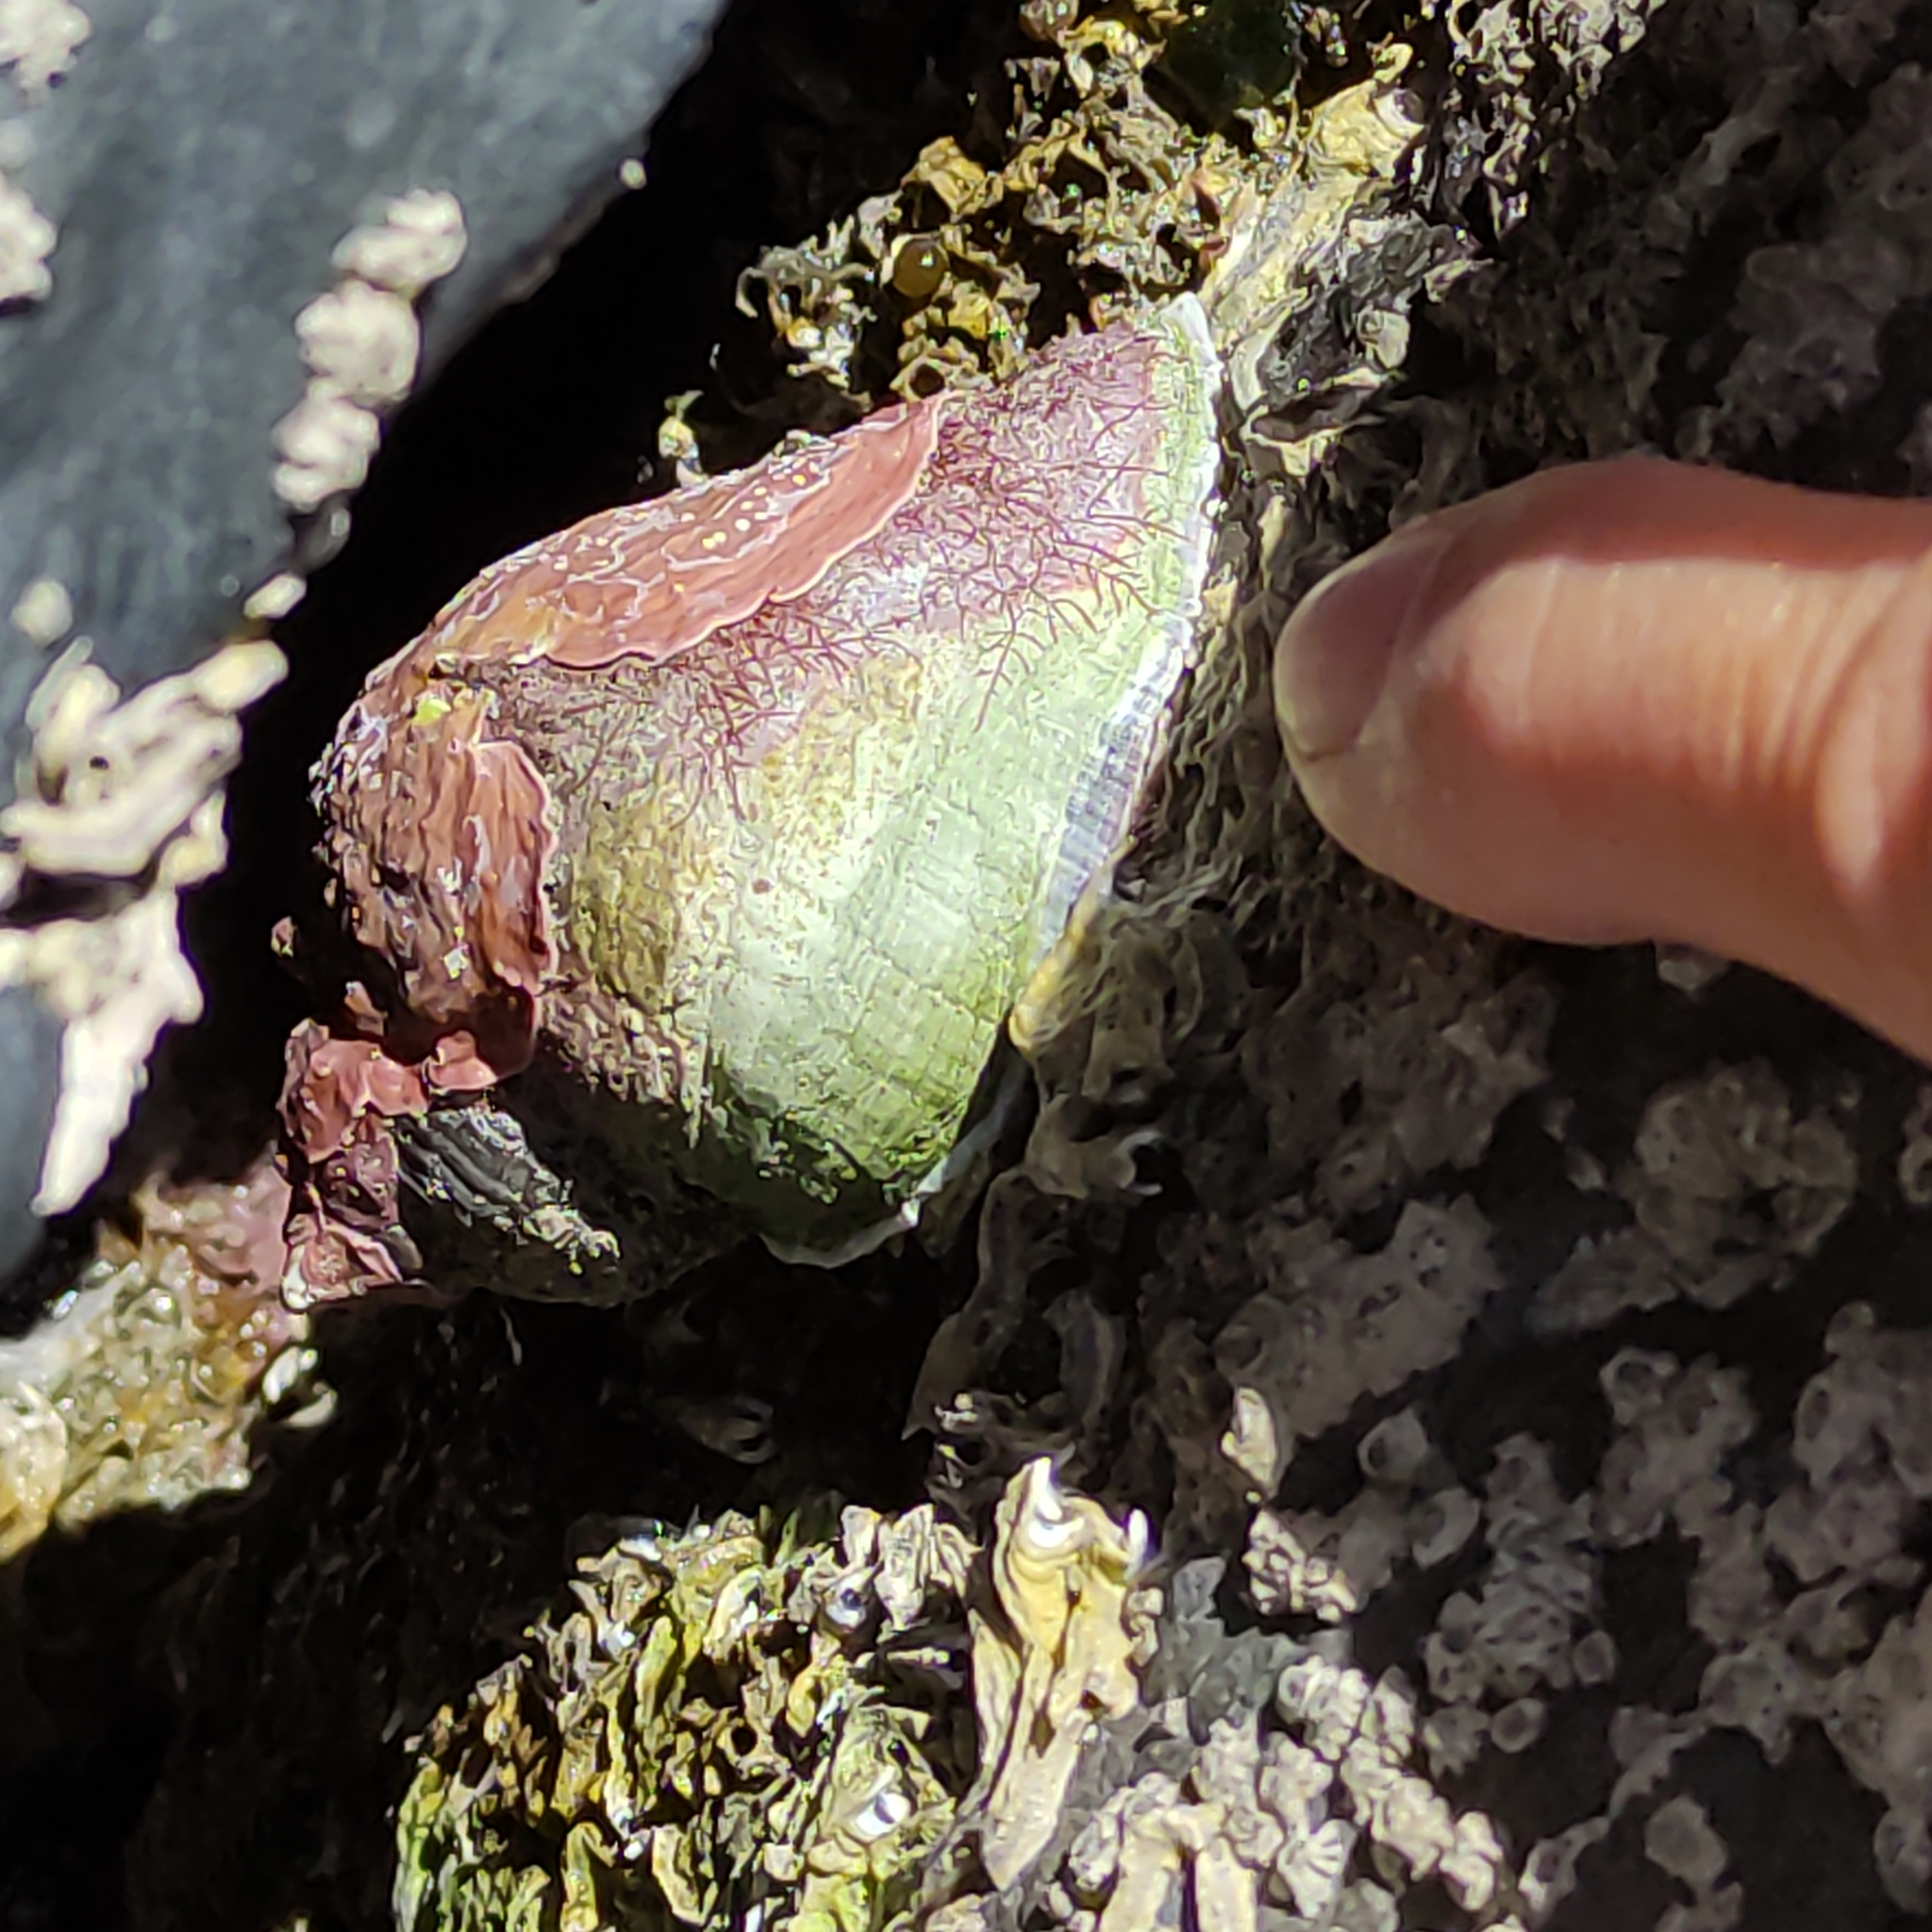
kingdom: Animalia
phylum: Mollusca
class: Gastropoda
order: Neogastropoda
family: Muricidae
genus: Haustrum
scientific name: Haustrum haustorium
